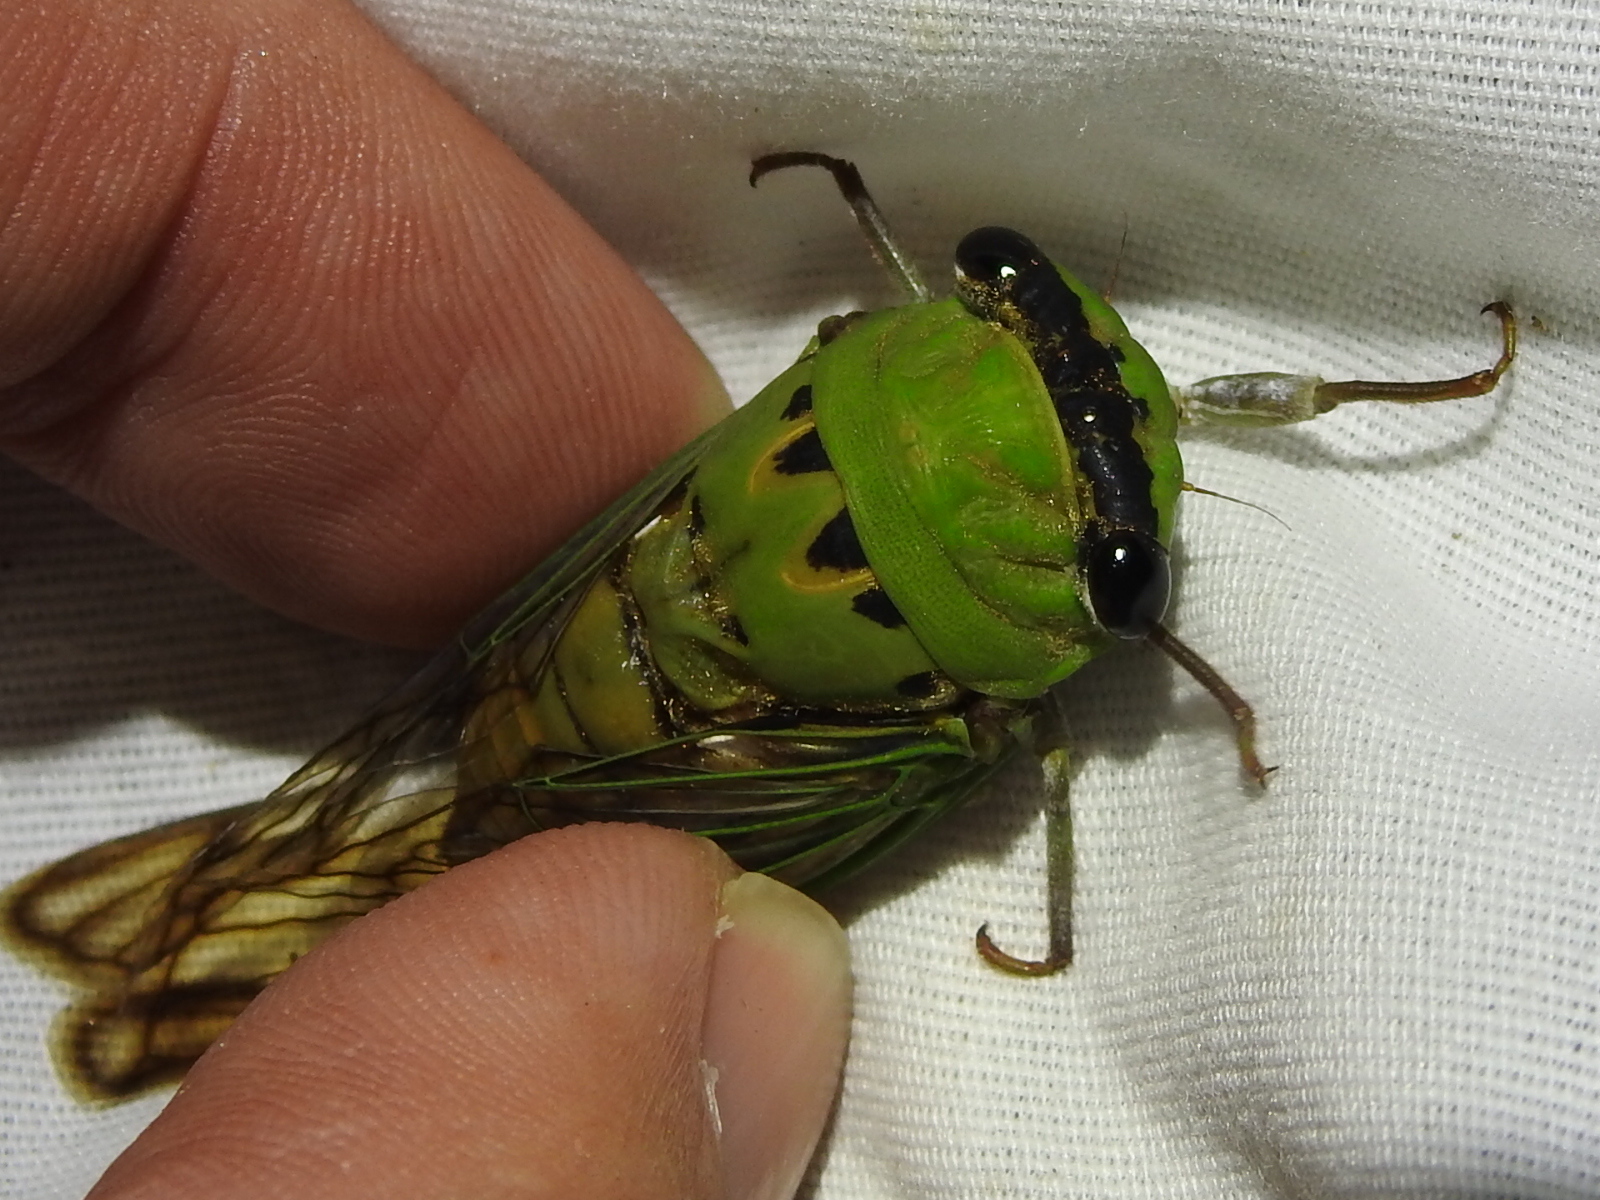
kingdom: Animalia
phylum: Arthropoda
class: Insecta
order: Hemiptera
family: Cicadidae
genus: Neotibicen
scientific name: Neotibicen superbus
